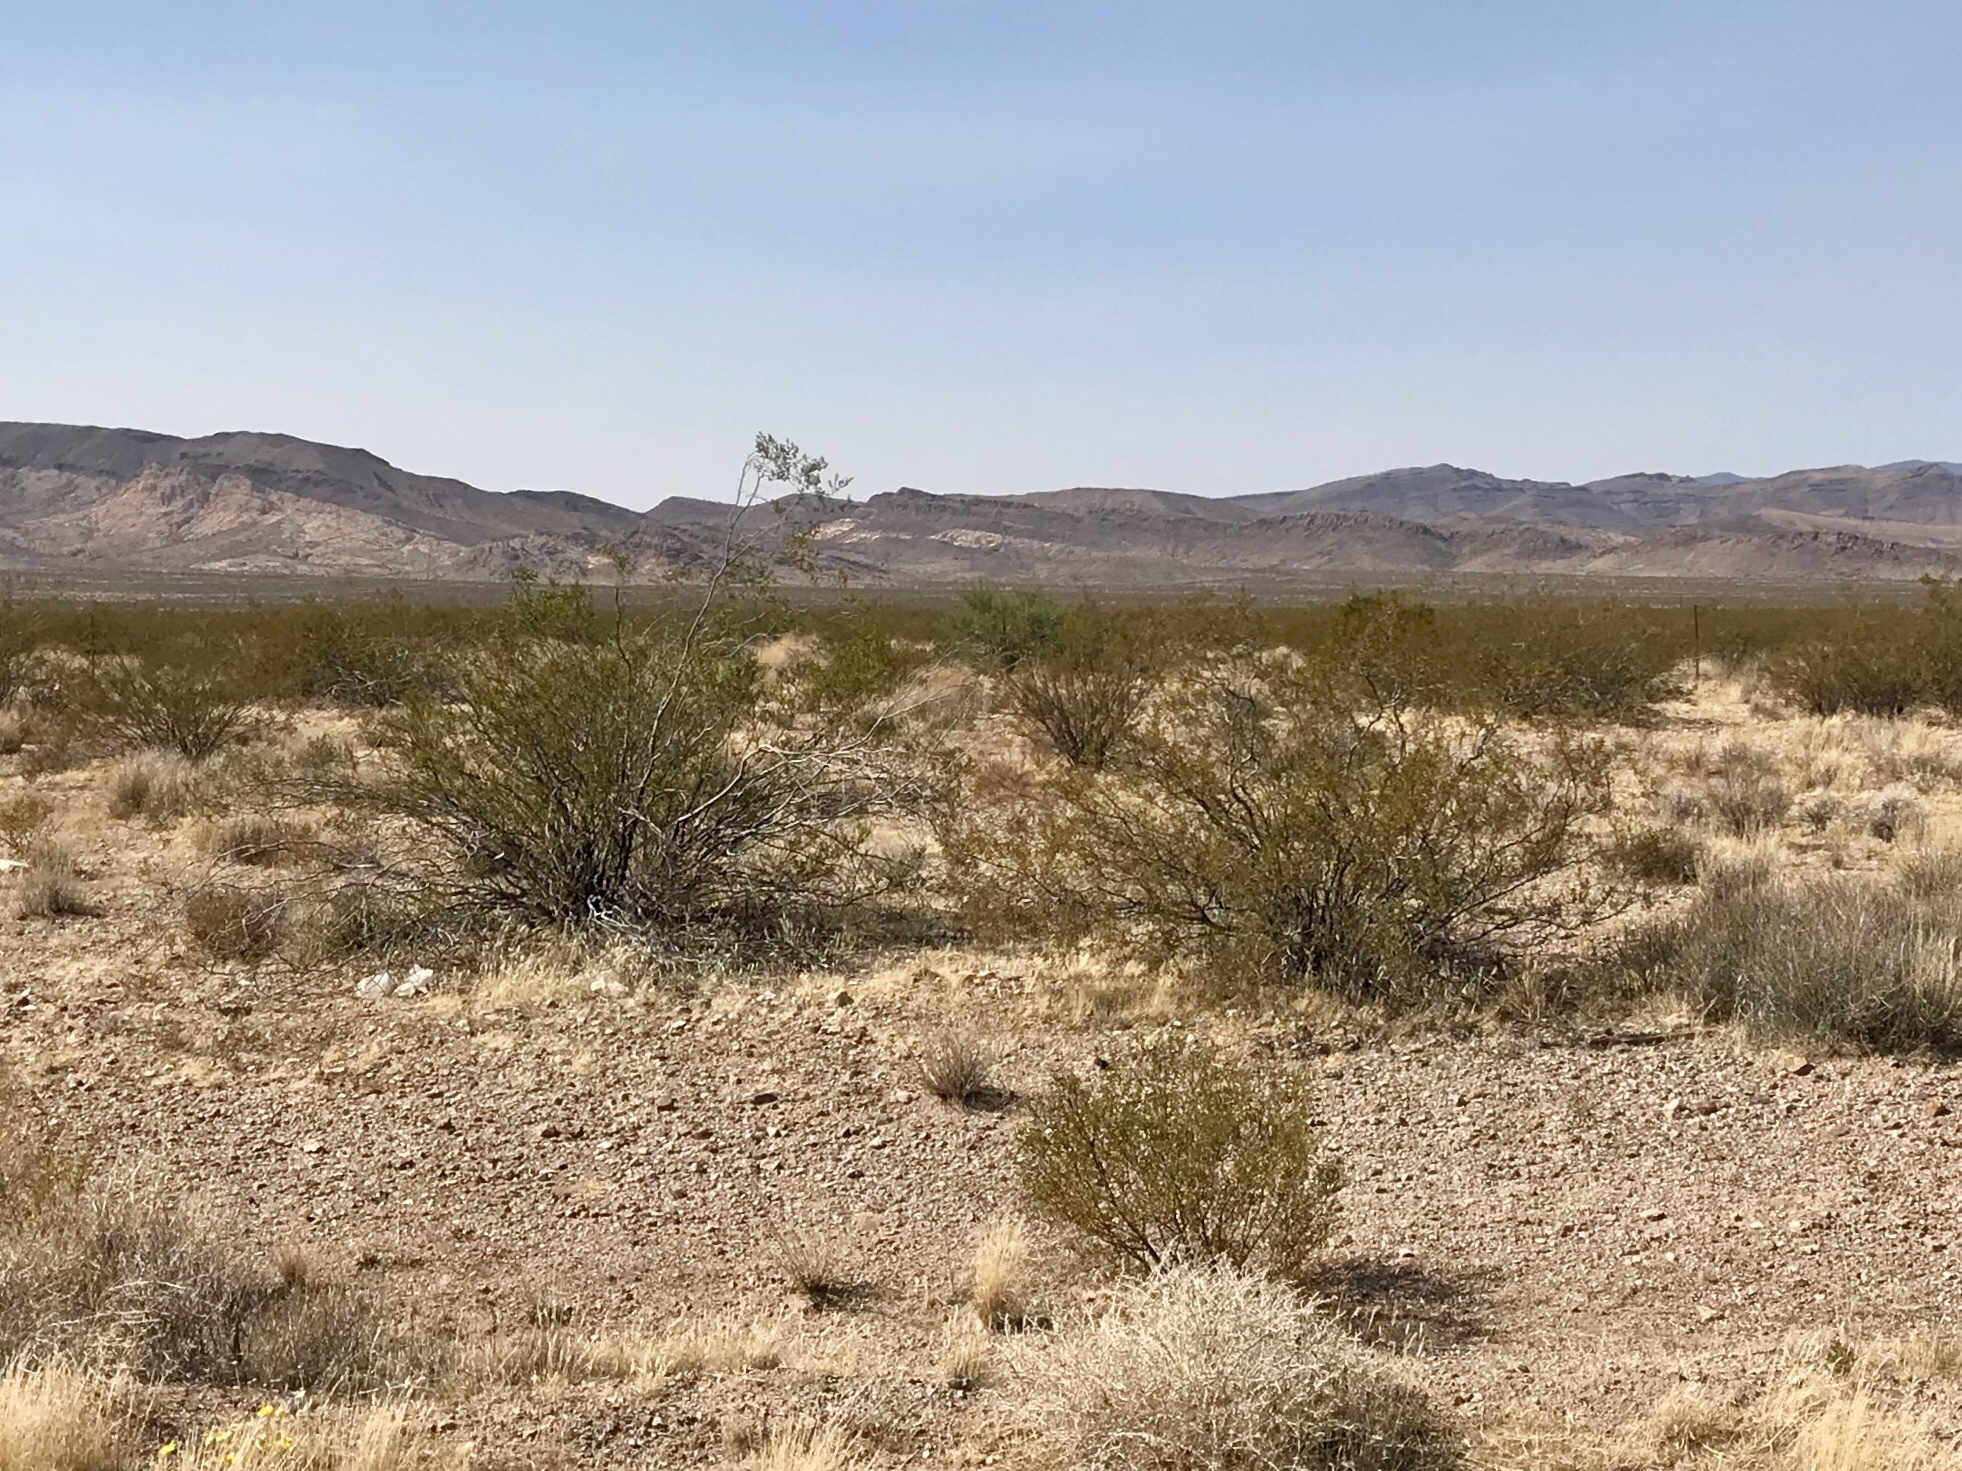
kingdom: Plantae
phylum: Tracheophyta
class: Magnoliopsida
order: Zygophyllales
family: Zygophyllaceae
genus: Larrea
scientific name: Larrea tridentata
